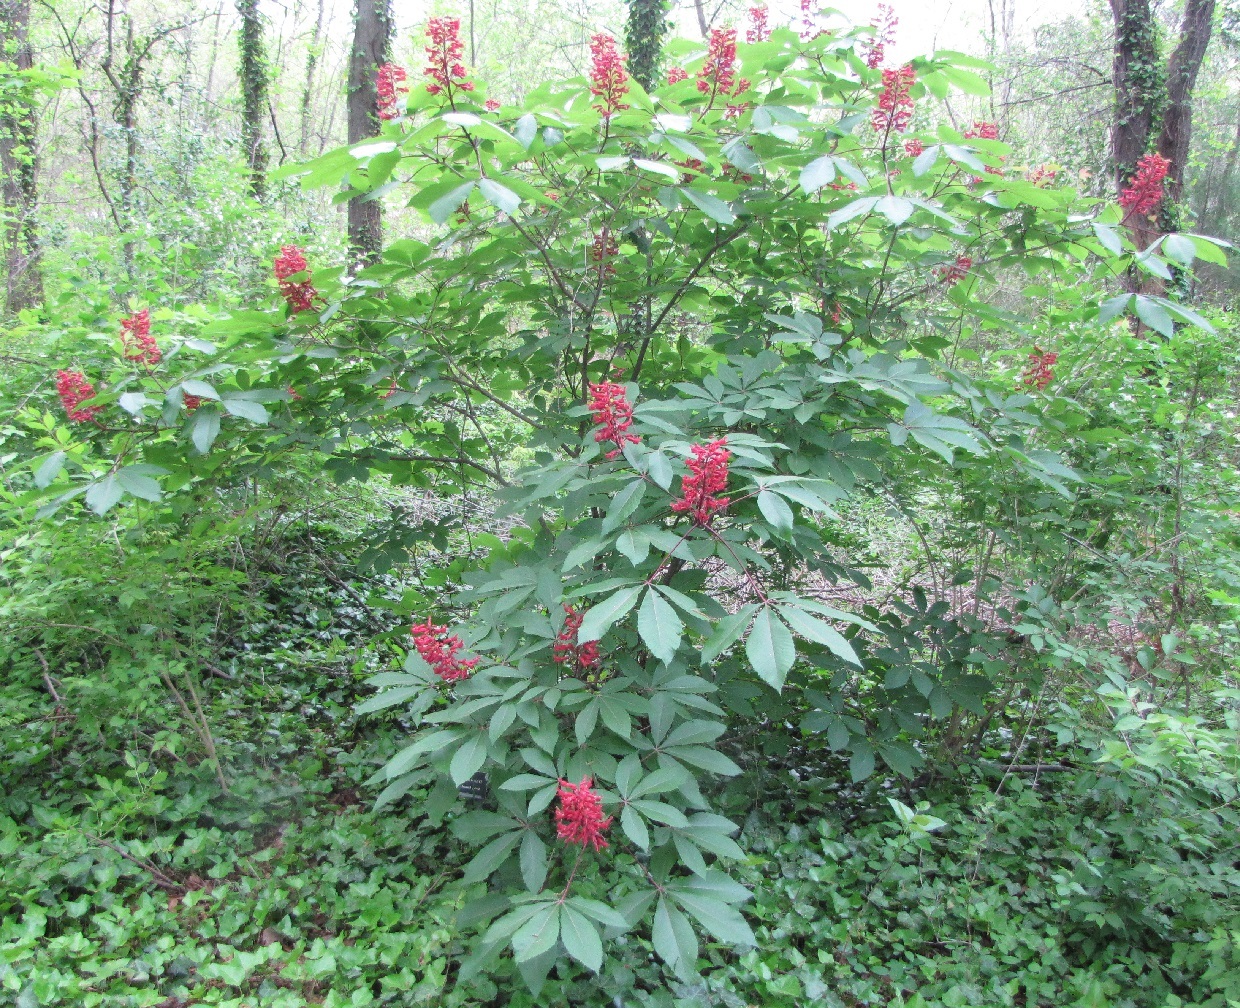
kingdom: Plantae
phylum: Tracheophyta
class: Magnoliopsida
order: Sapindales
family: Sapindaceae
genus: Aesculus
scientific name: Aesculus pavia
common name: Red buckeye
